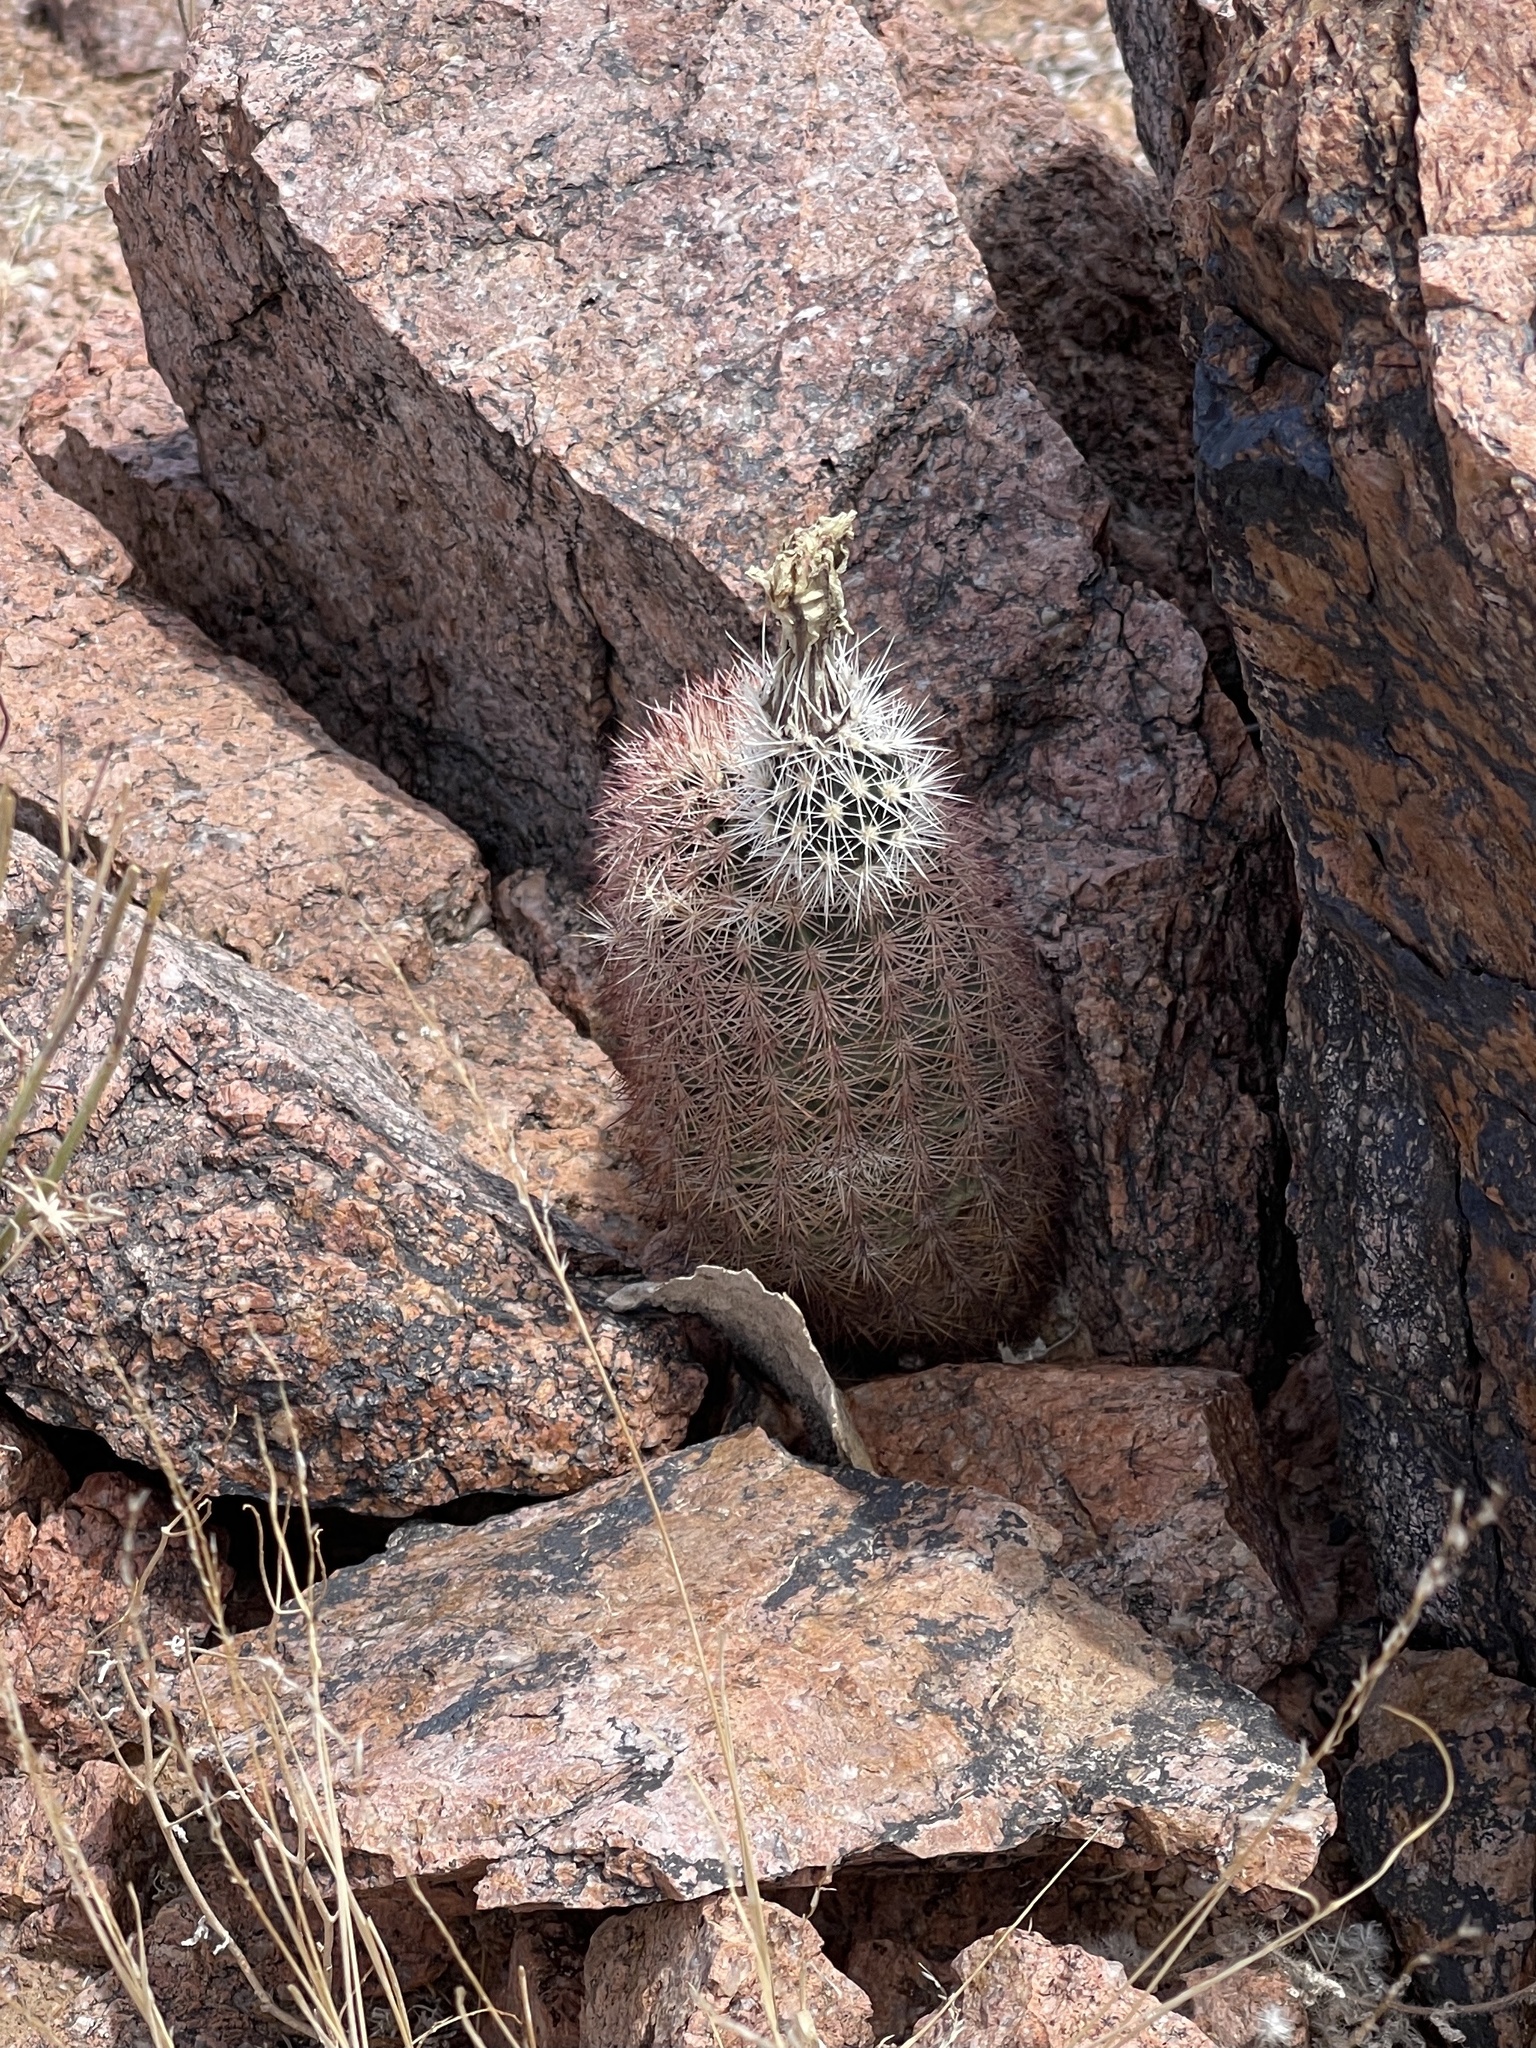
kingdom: Plantae
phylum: Tracheophyta
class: Magnoliopsida
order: Caryophyllales
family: Cactaceae
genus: Echinocereus
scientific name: Echinocereus dasyacanthus
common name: Spiny hedgehog cactus
